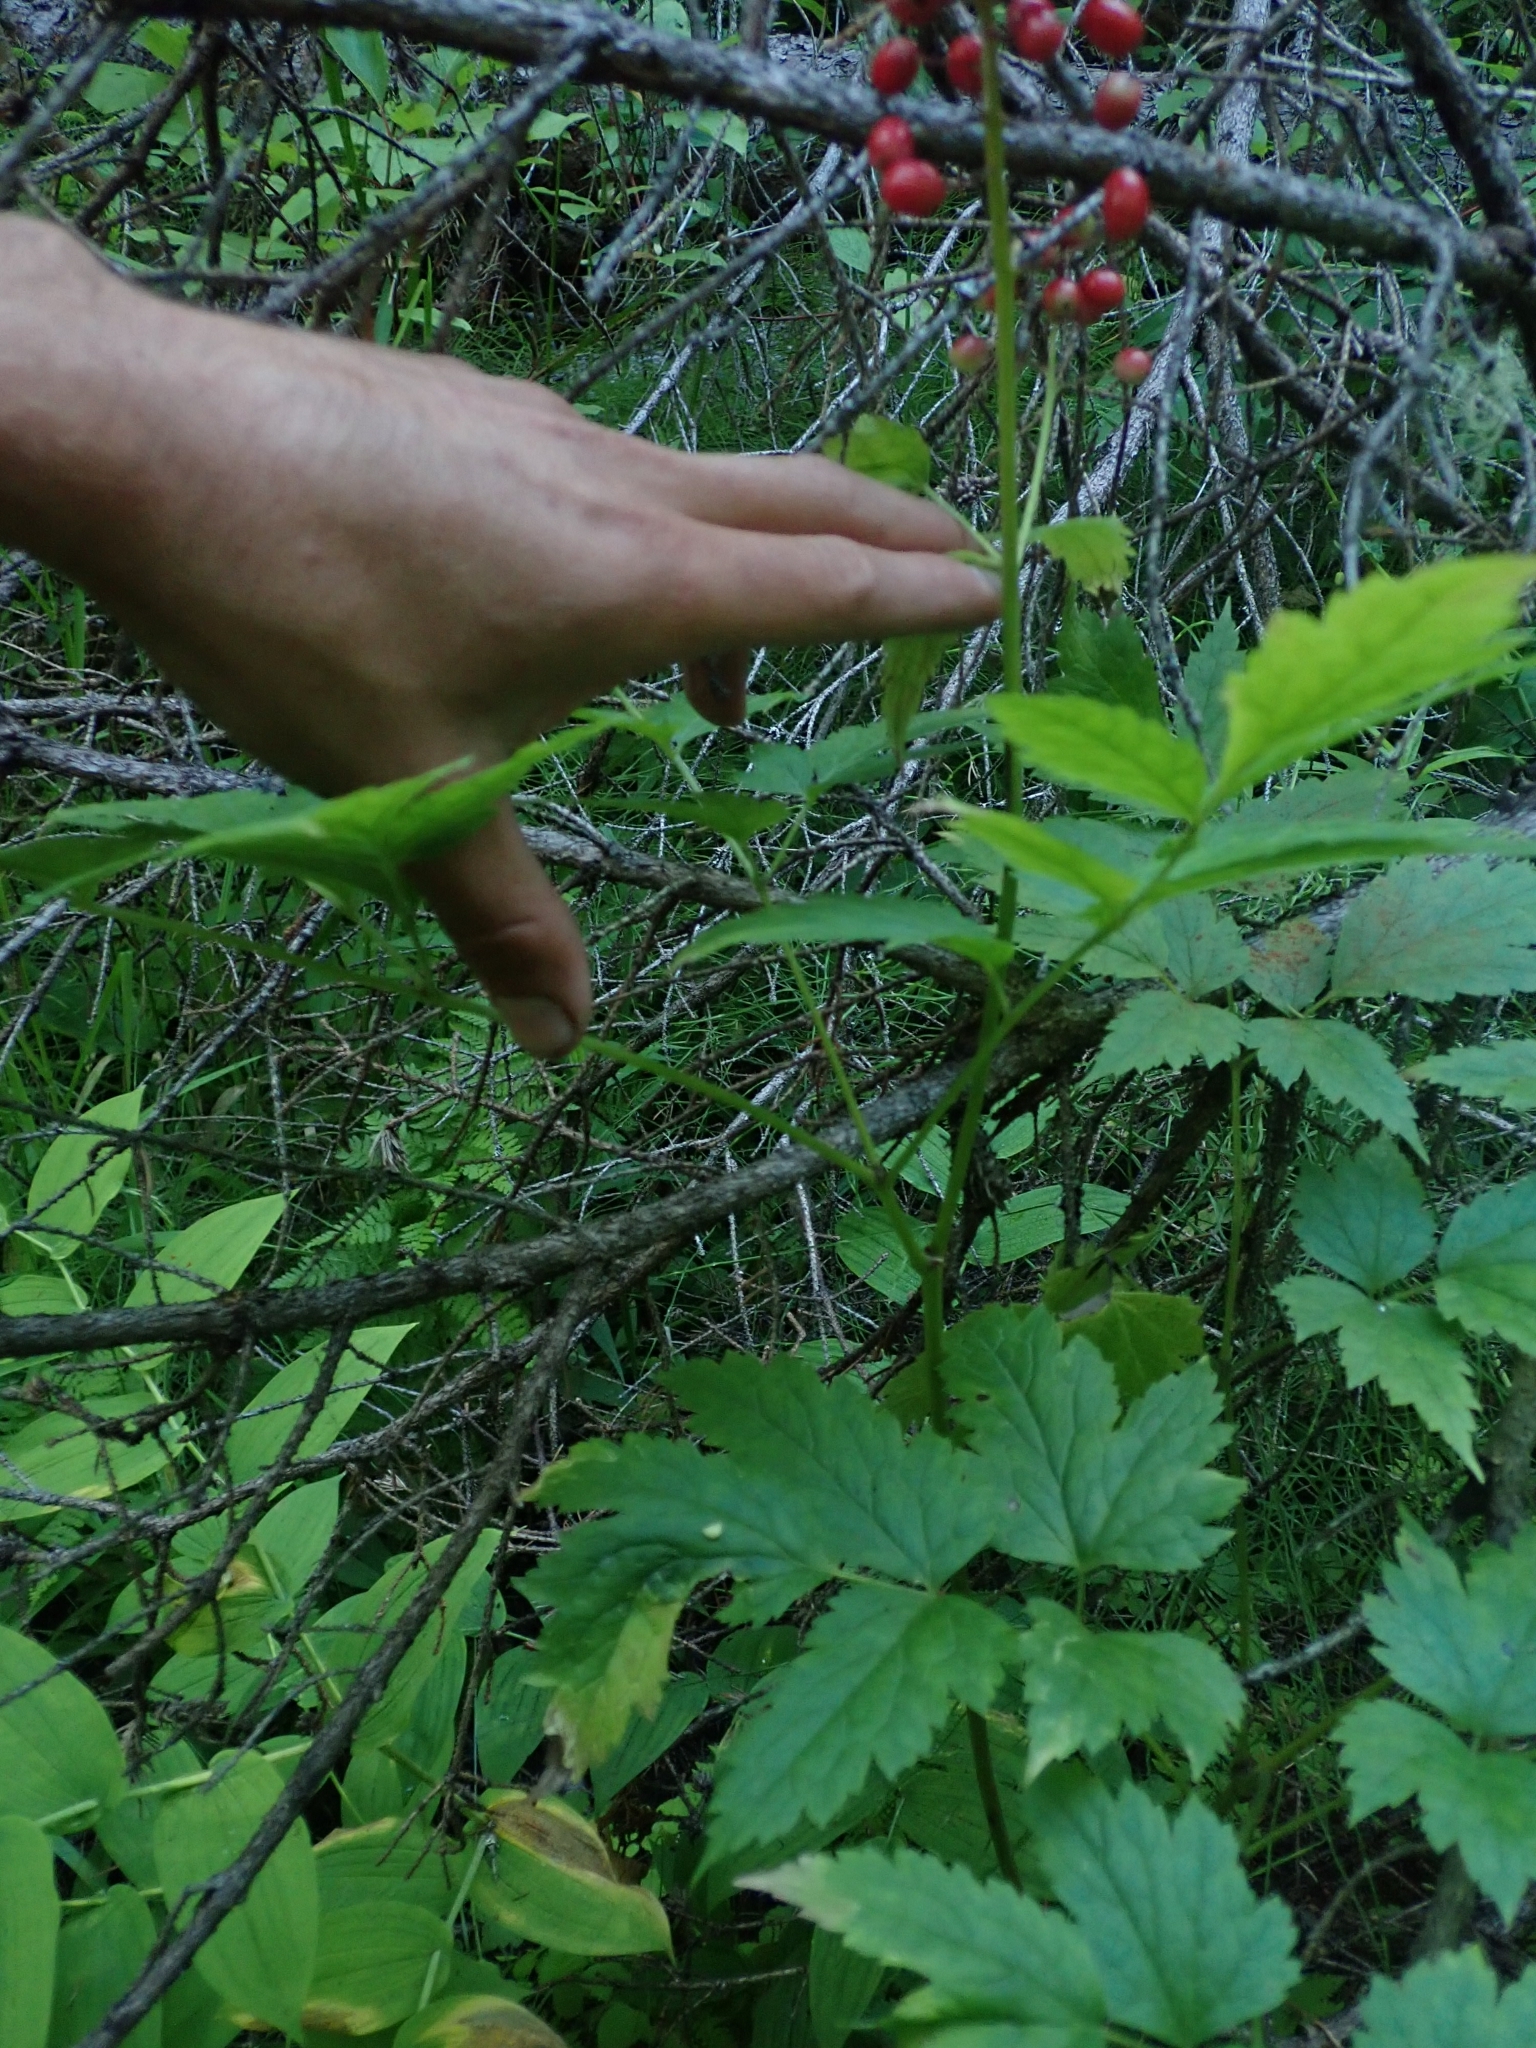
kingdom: Plantae
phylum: Tracheophyta
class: Magnoliopsida
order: Ranunculales
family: Ranunculaceae
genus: Actaea
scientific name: Actaea rubra
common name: Red baneberry
